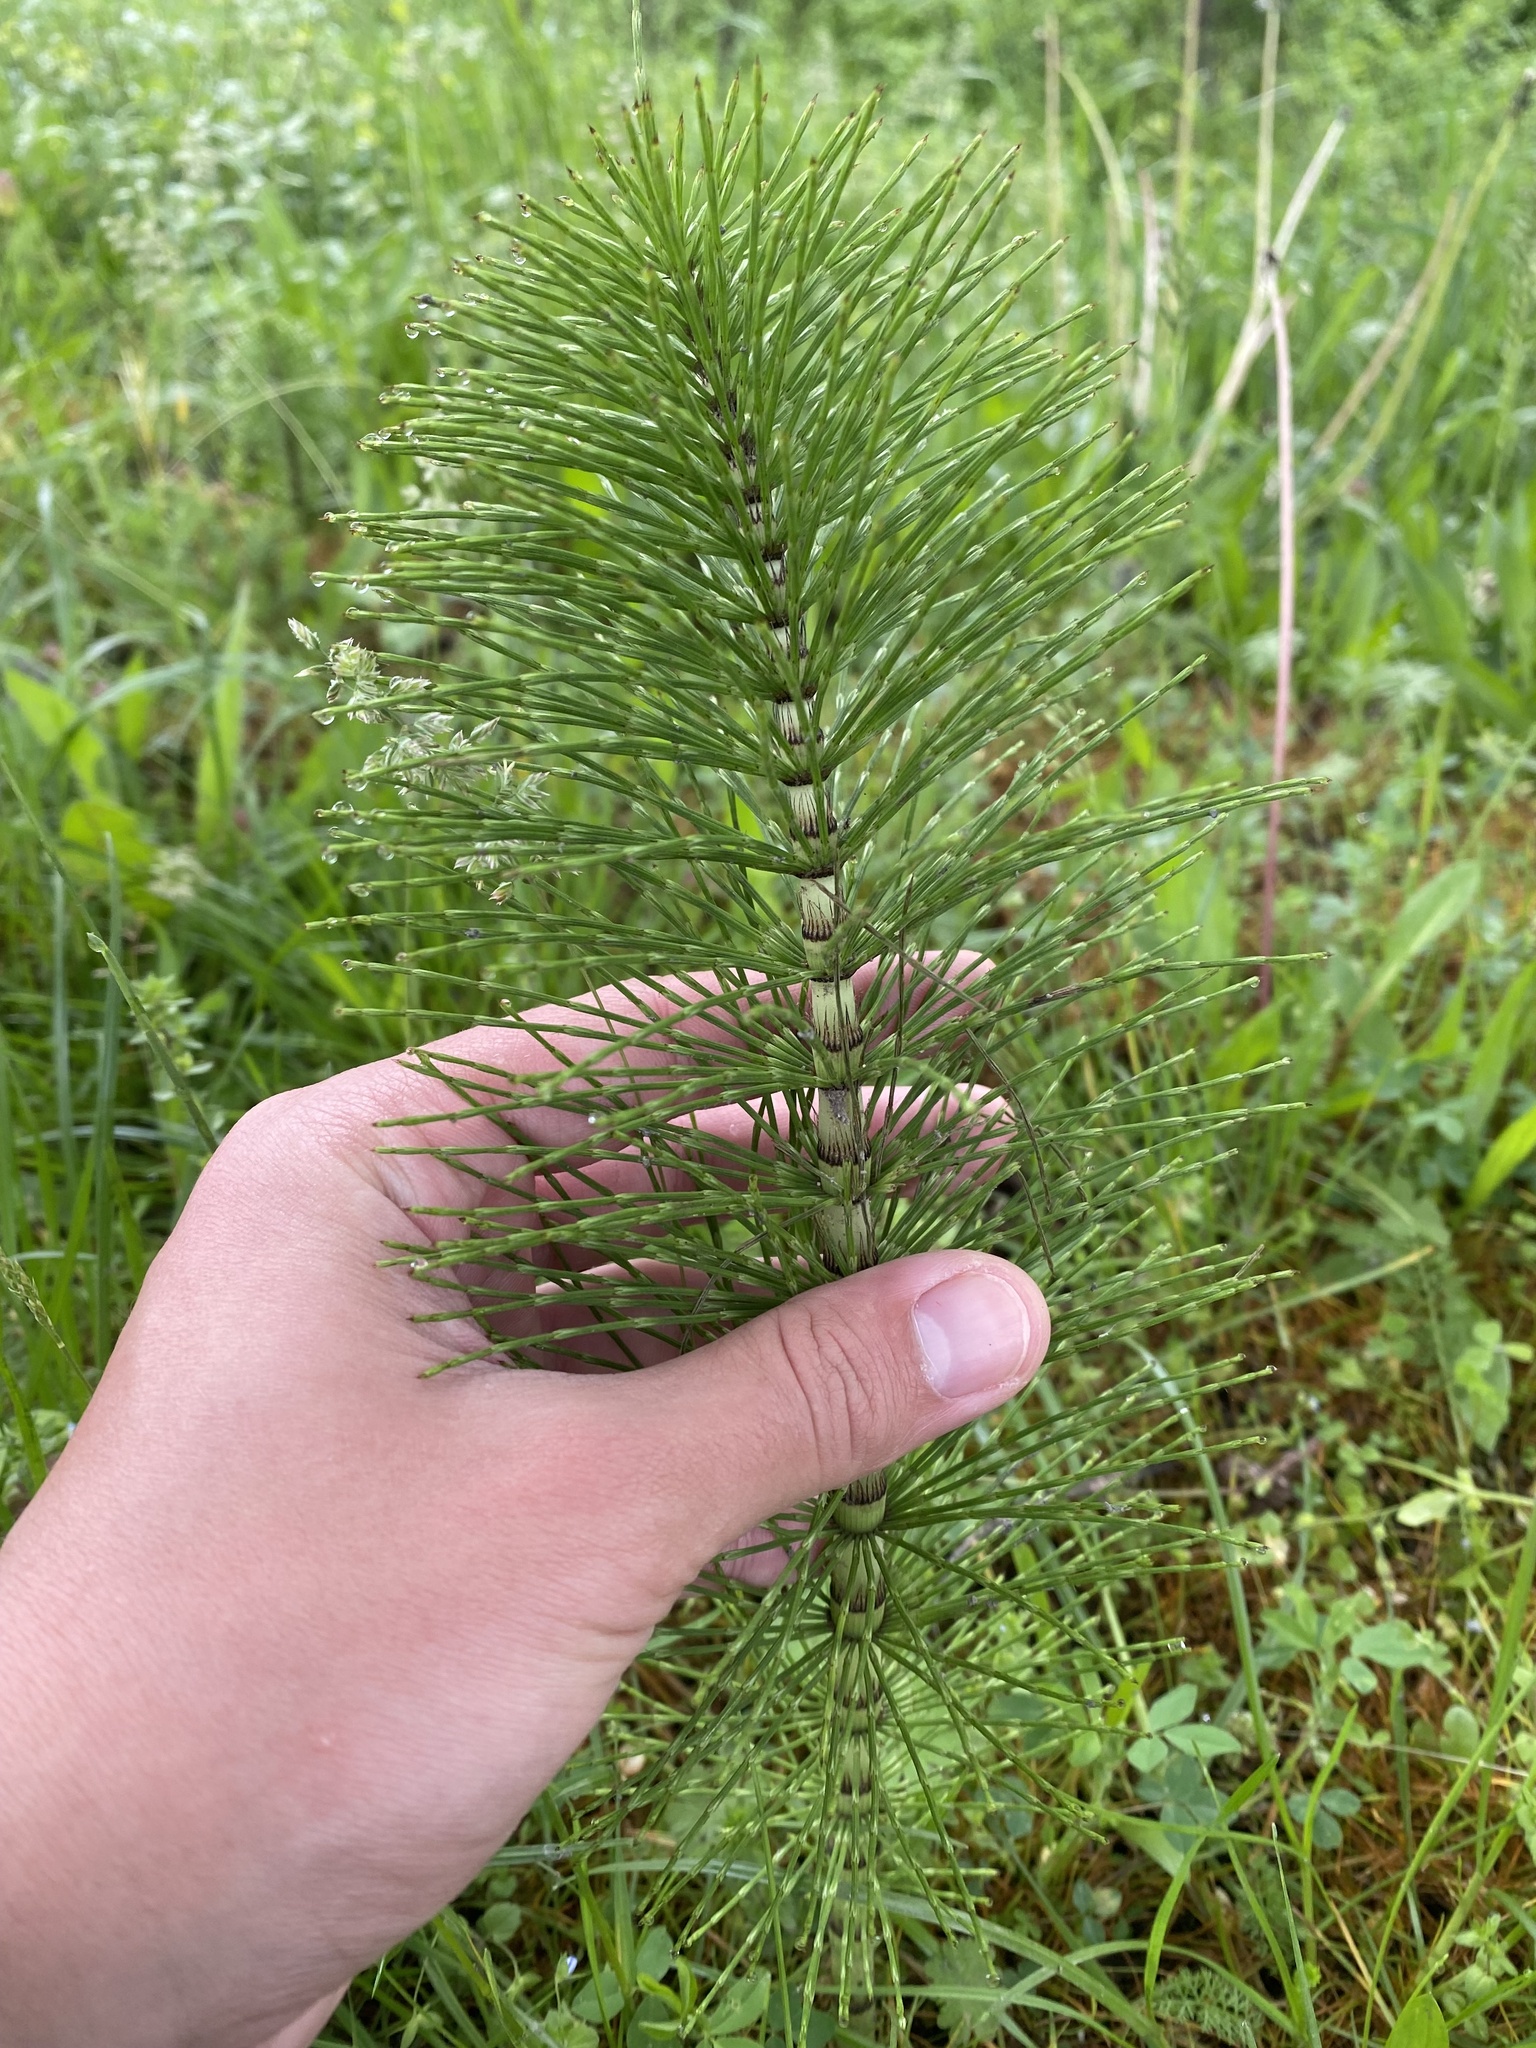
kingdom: Plantae
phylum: Tracheophyta
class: Polypodiopsida
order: Equisetales
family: Equisetaceae
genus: Equisetum
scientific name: Equisetum telmateia
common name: Great horsetail
